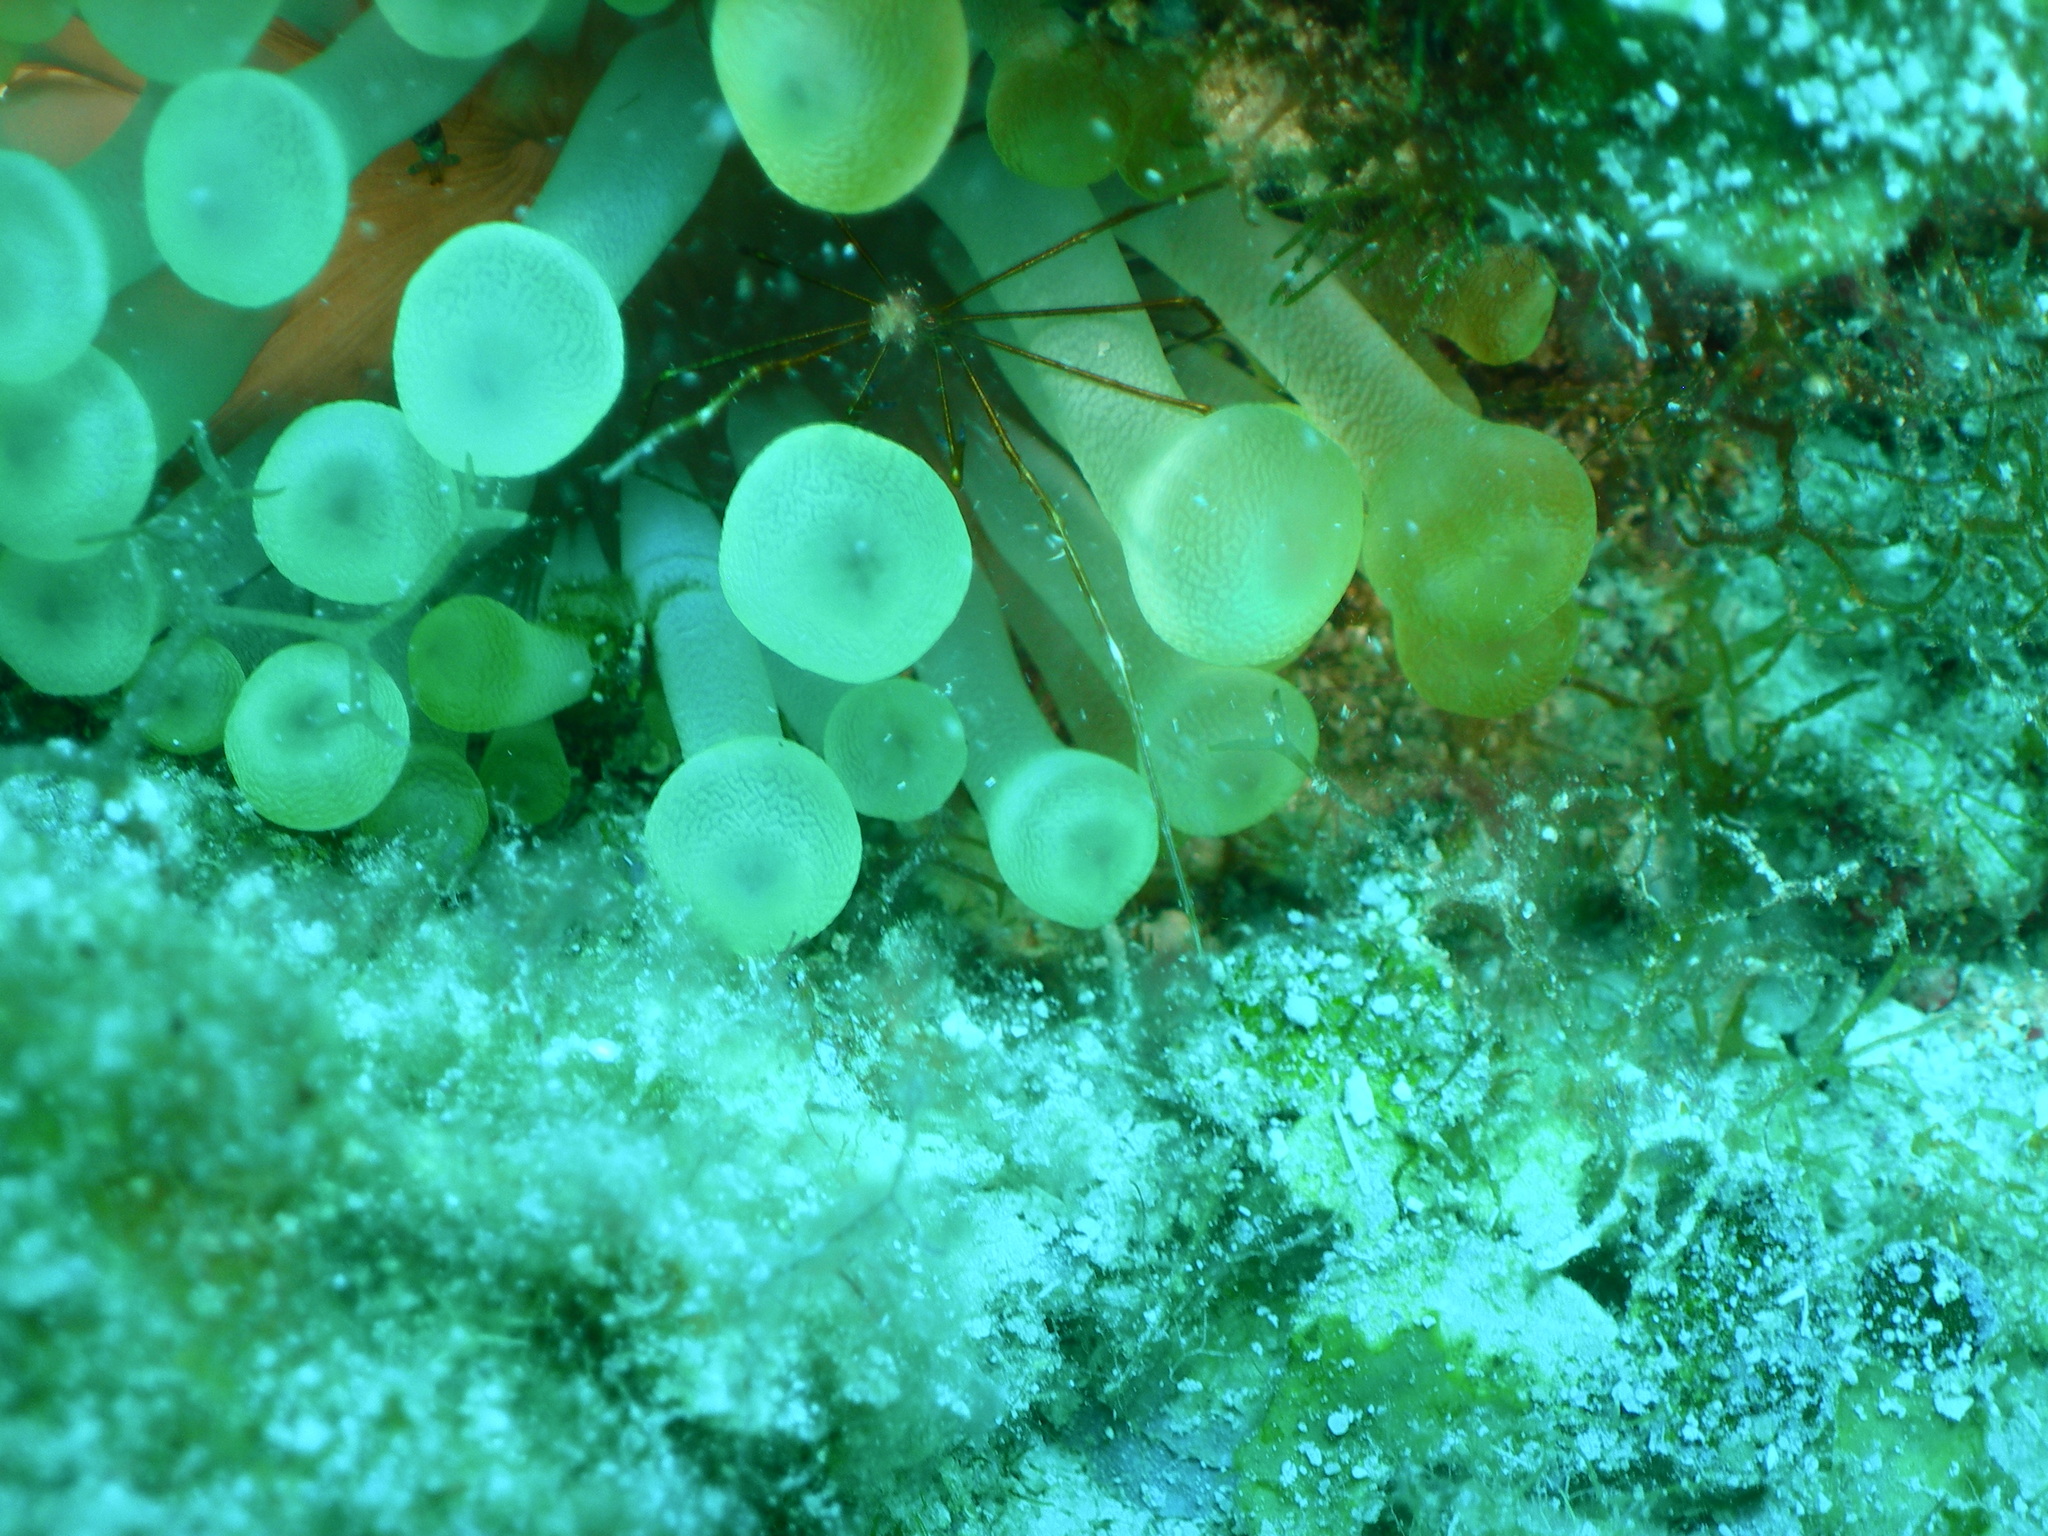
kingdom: Animalia
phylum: Cnidaria
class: Anthozoa
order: Actiniaria
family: Actiniidae
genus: Condylactis
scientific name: Condylactis gigantea
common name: Giant caribbean anemone
